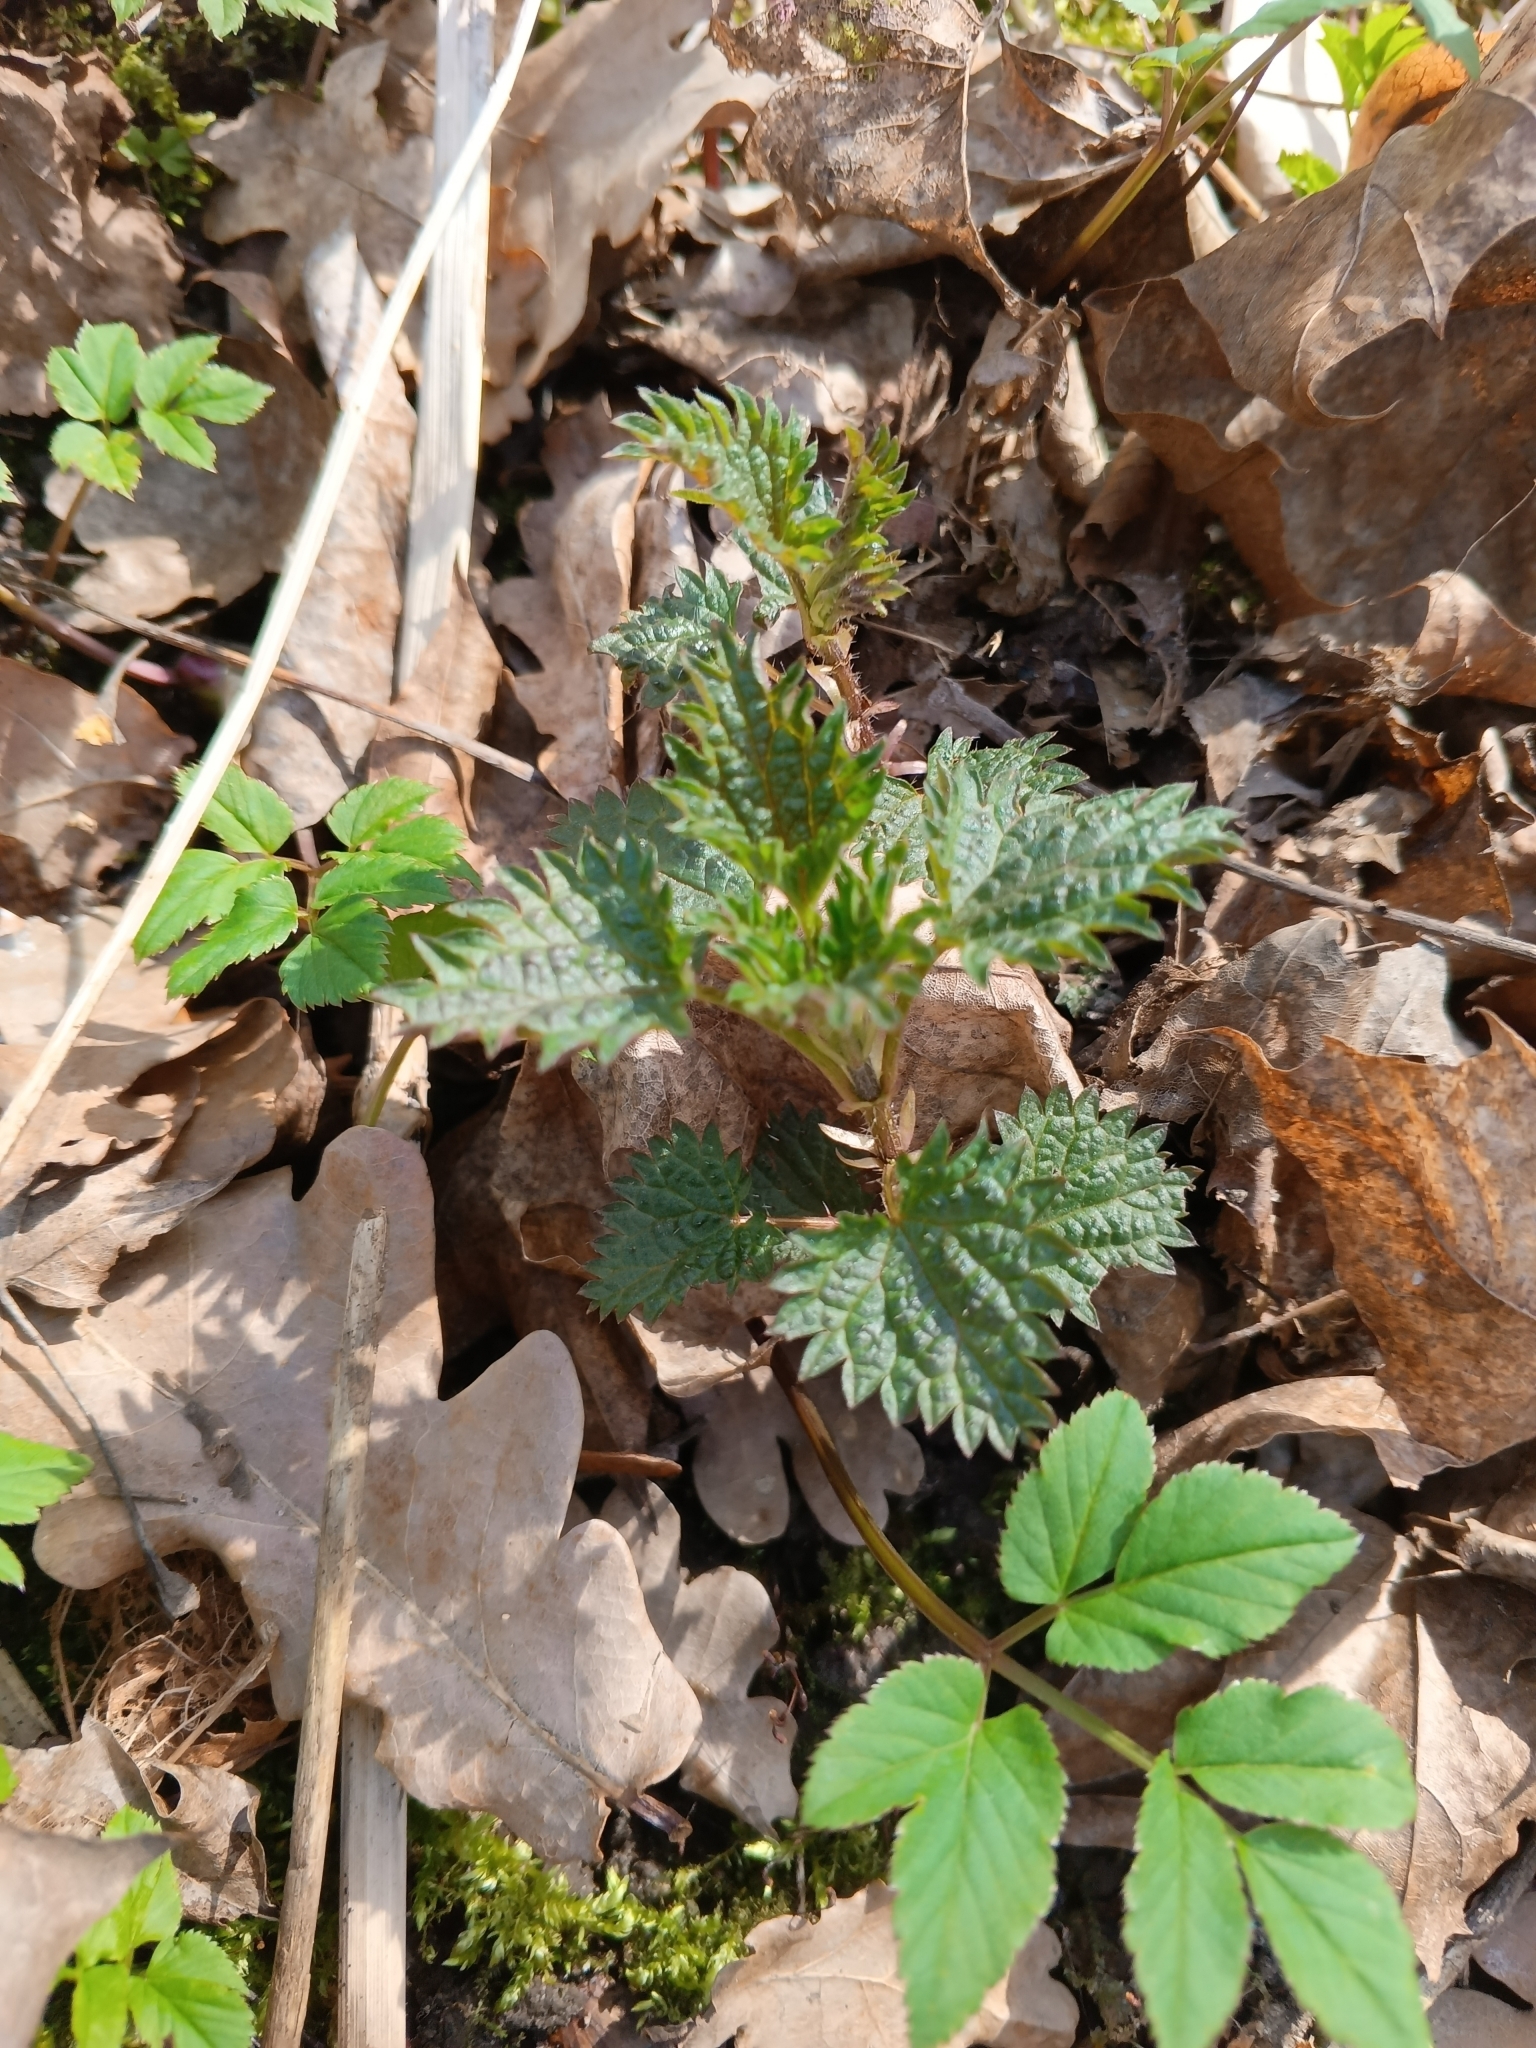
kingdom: Plantae
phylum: Tracheophyta
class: Magnoliopsida
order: Rosales
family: Urticaceae
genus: Urtica
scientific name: Urtica dioica
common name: Common nettle
